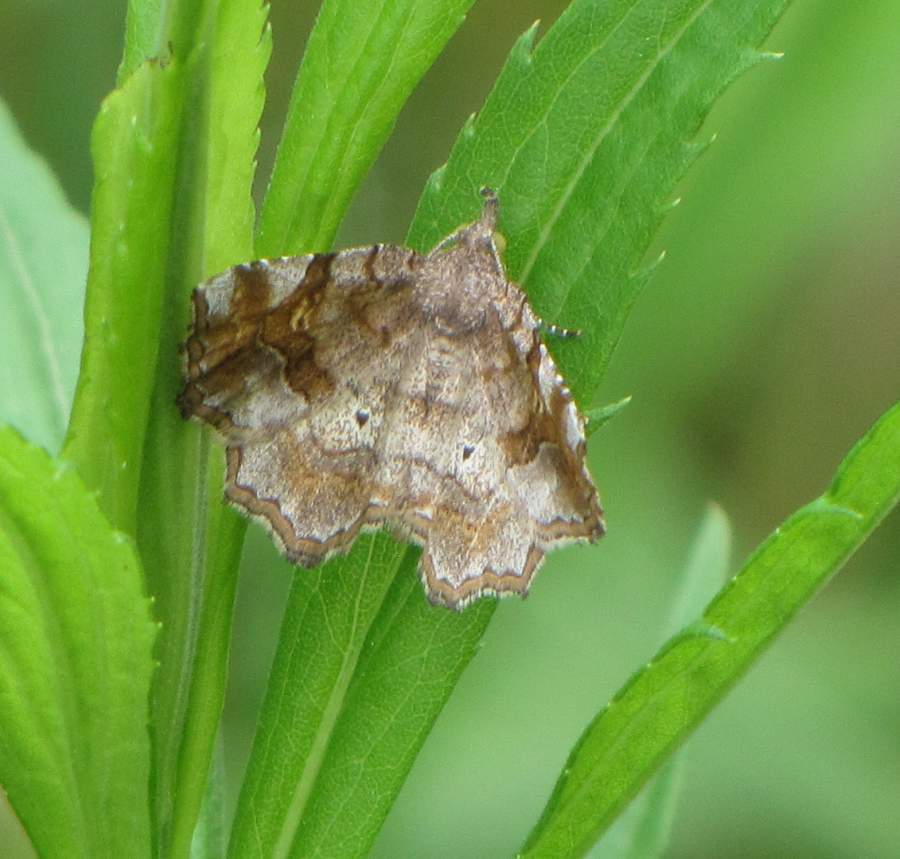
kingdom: Animalia
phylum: Arthropoda
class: Insecta
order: Lepidoptera
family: Erebidae
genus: Pangrapta
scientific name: Pangrapta decoralis
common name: Decorated owlet
